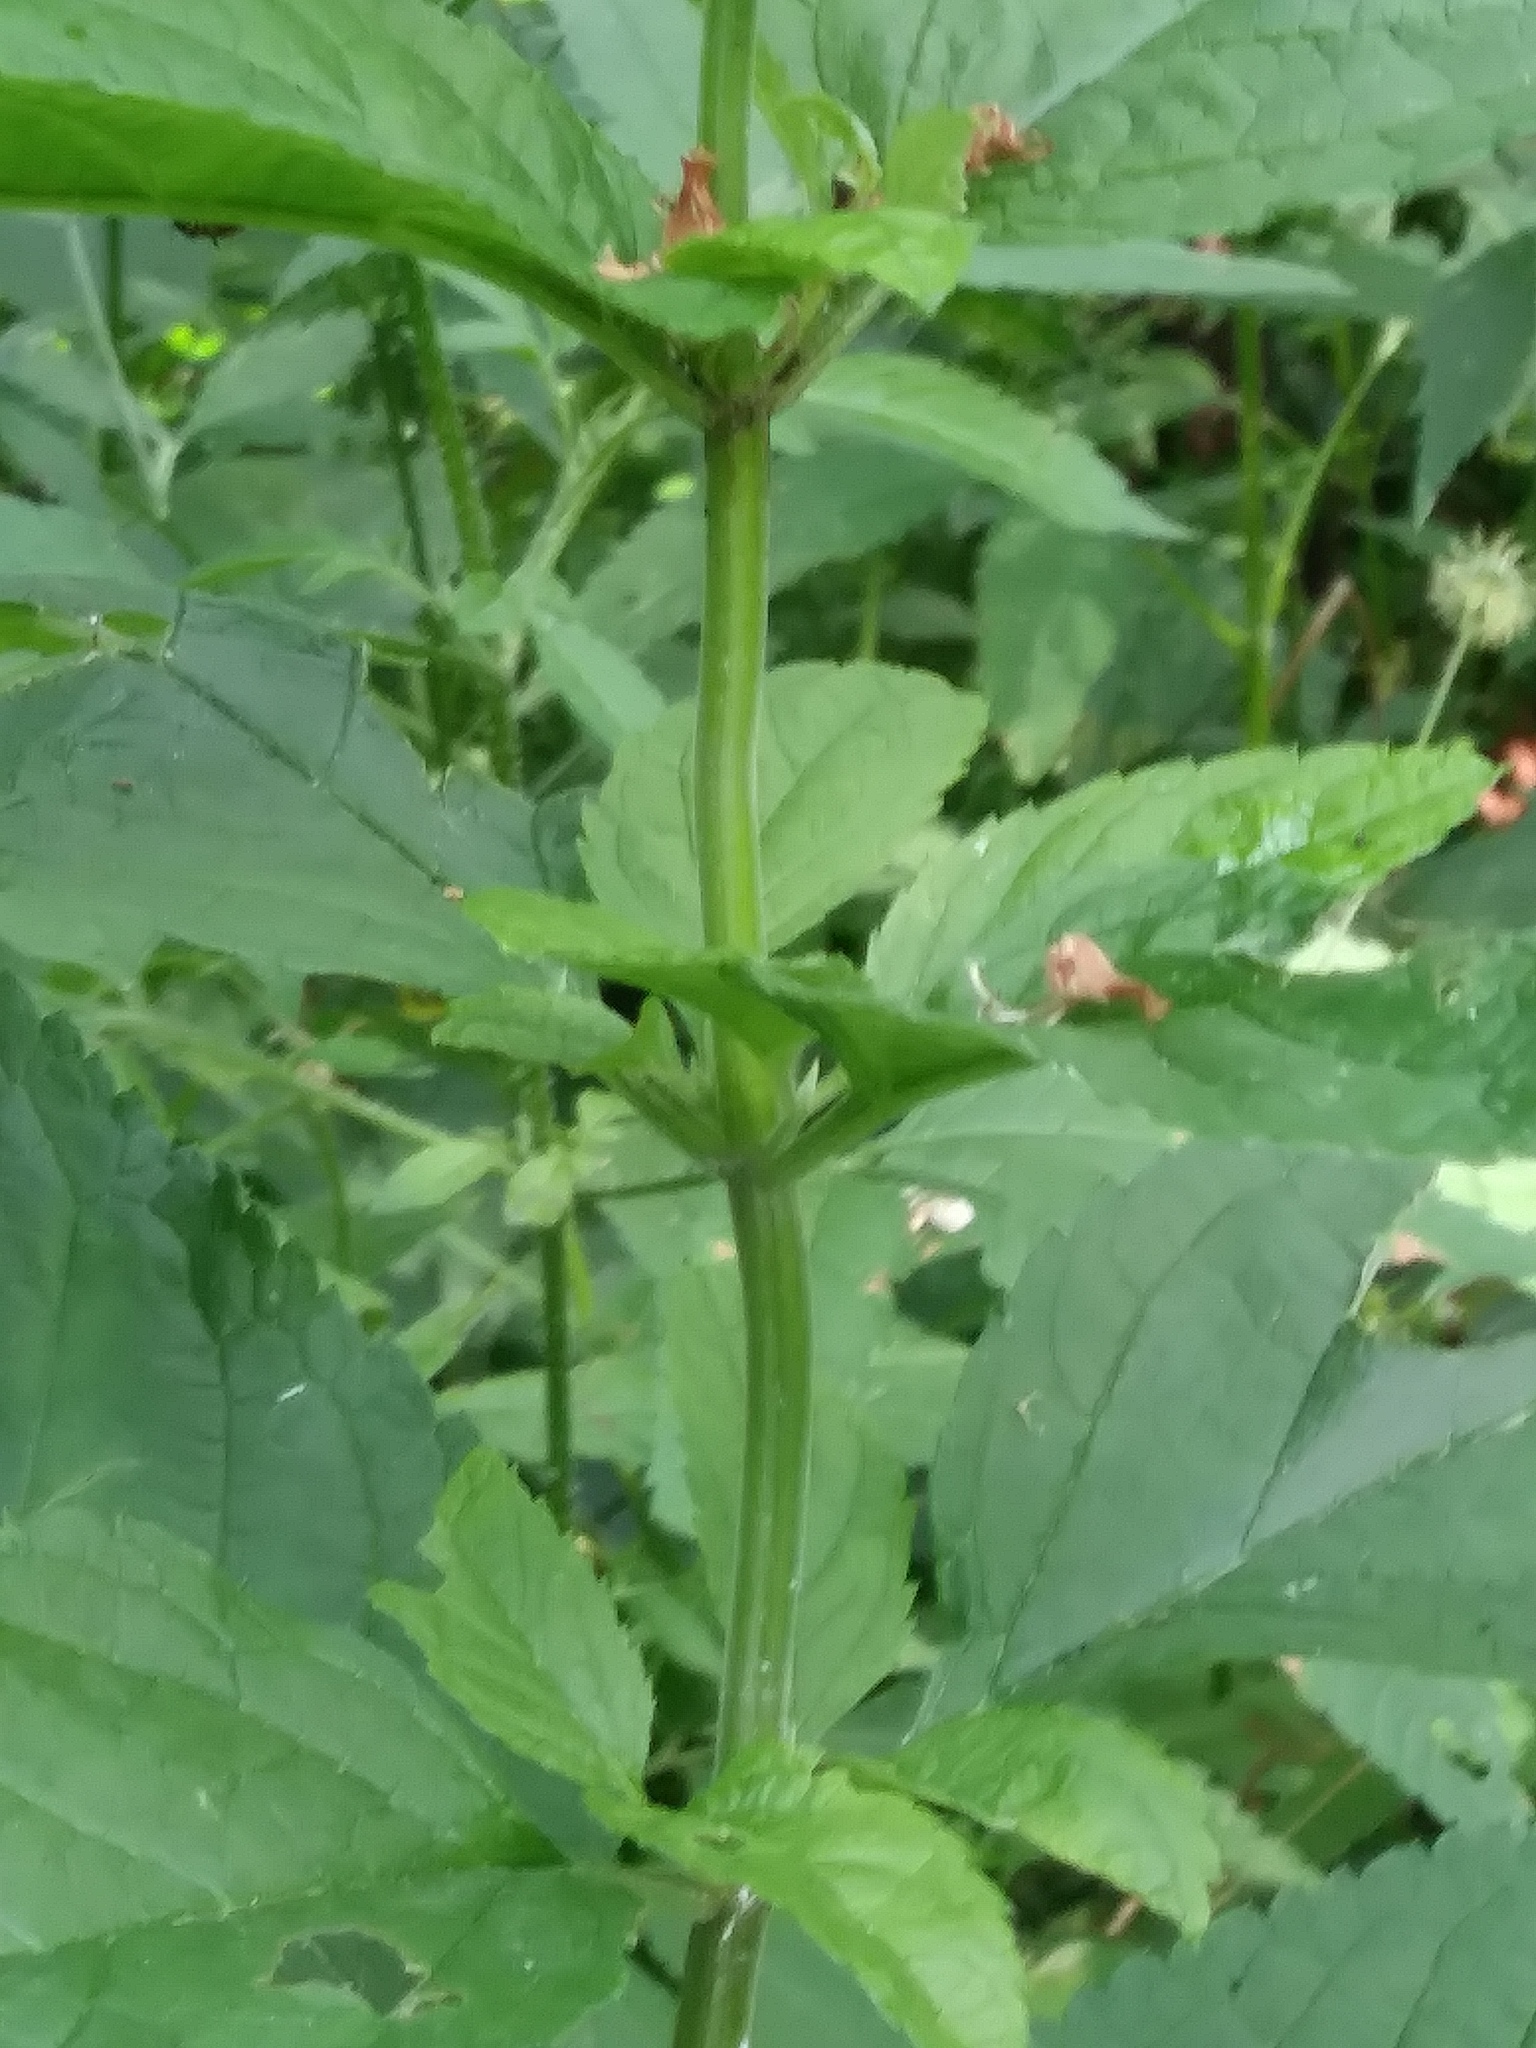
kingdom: Plantae
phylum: Tracheophyta
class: Magnoliopsida
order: Lamiales
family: Lamiaceae
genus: Teucrium
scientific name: Teucrium canadense
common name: American germander
